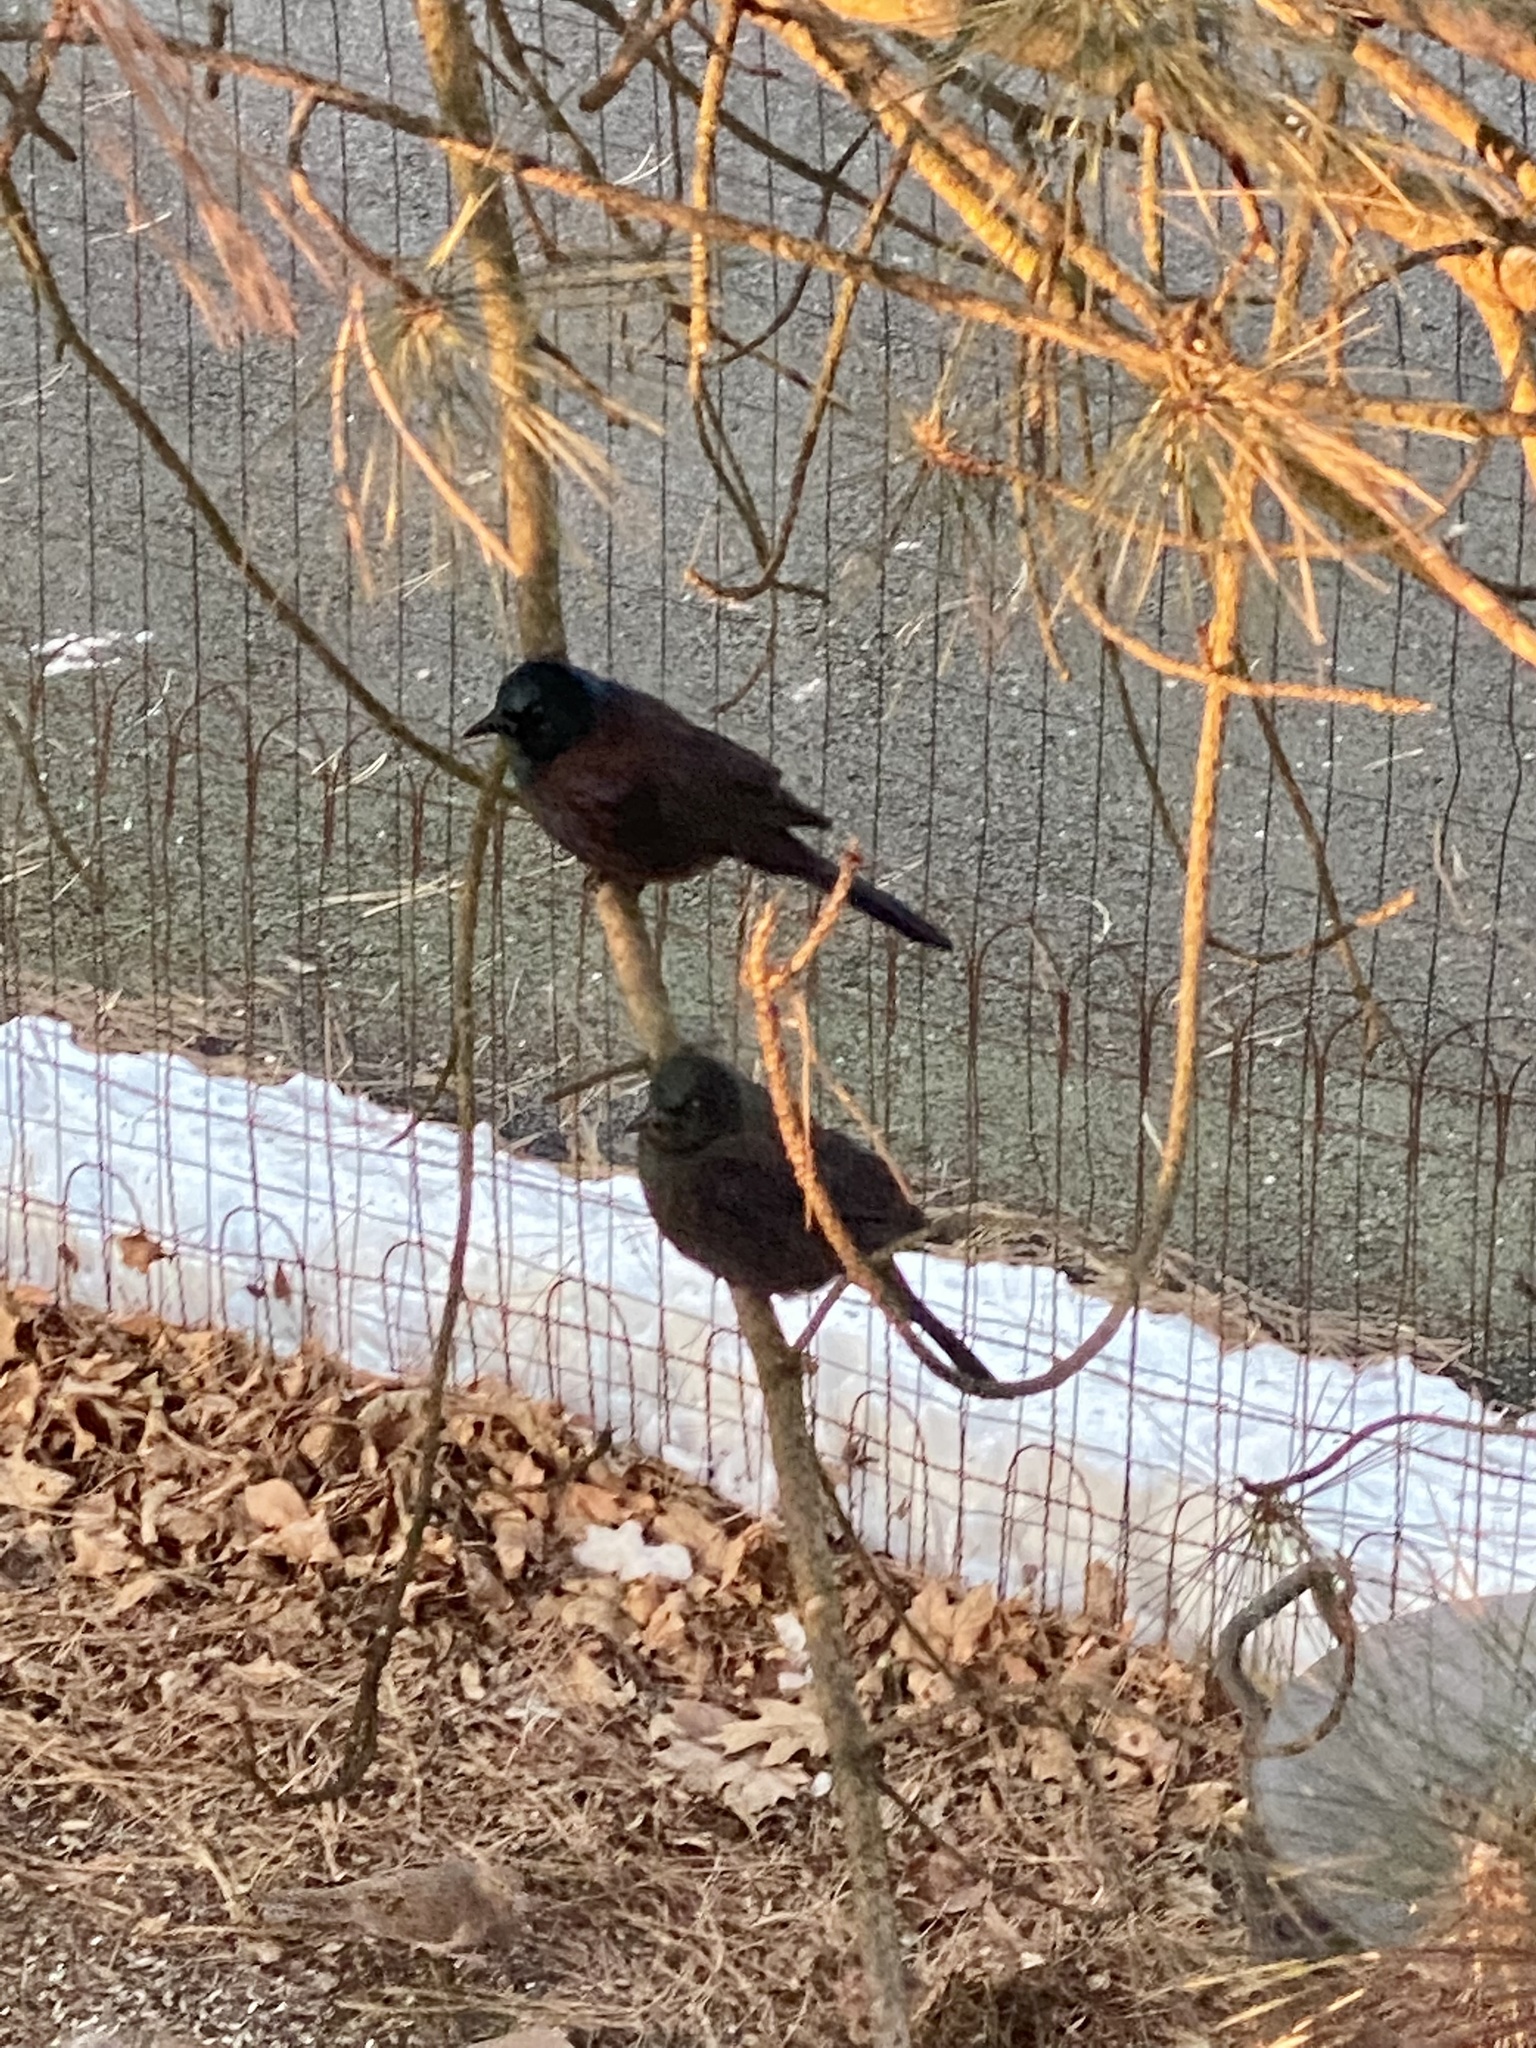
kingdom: Animalia
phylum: Chordata
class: Aves
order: Passeriformes
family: Icteridae
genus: Quiscalus
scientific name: Quiscalus quiscula
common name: Common grackle
